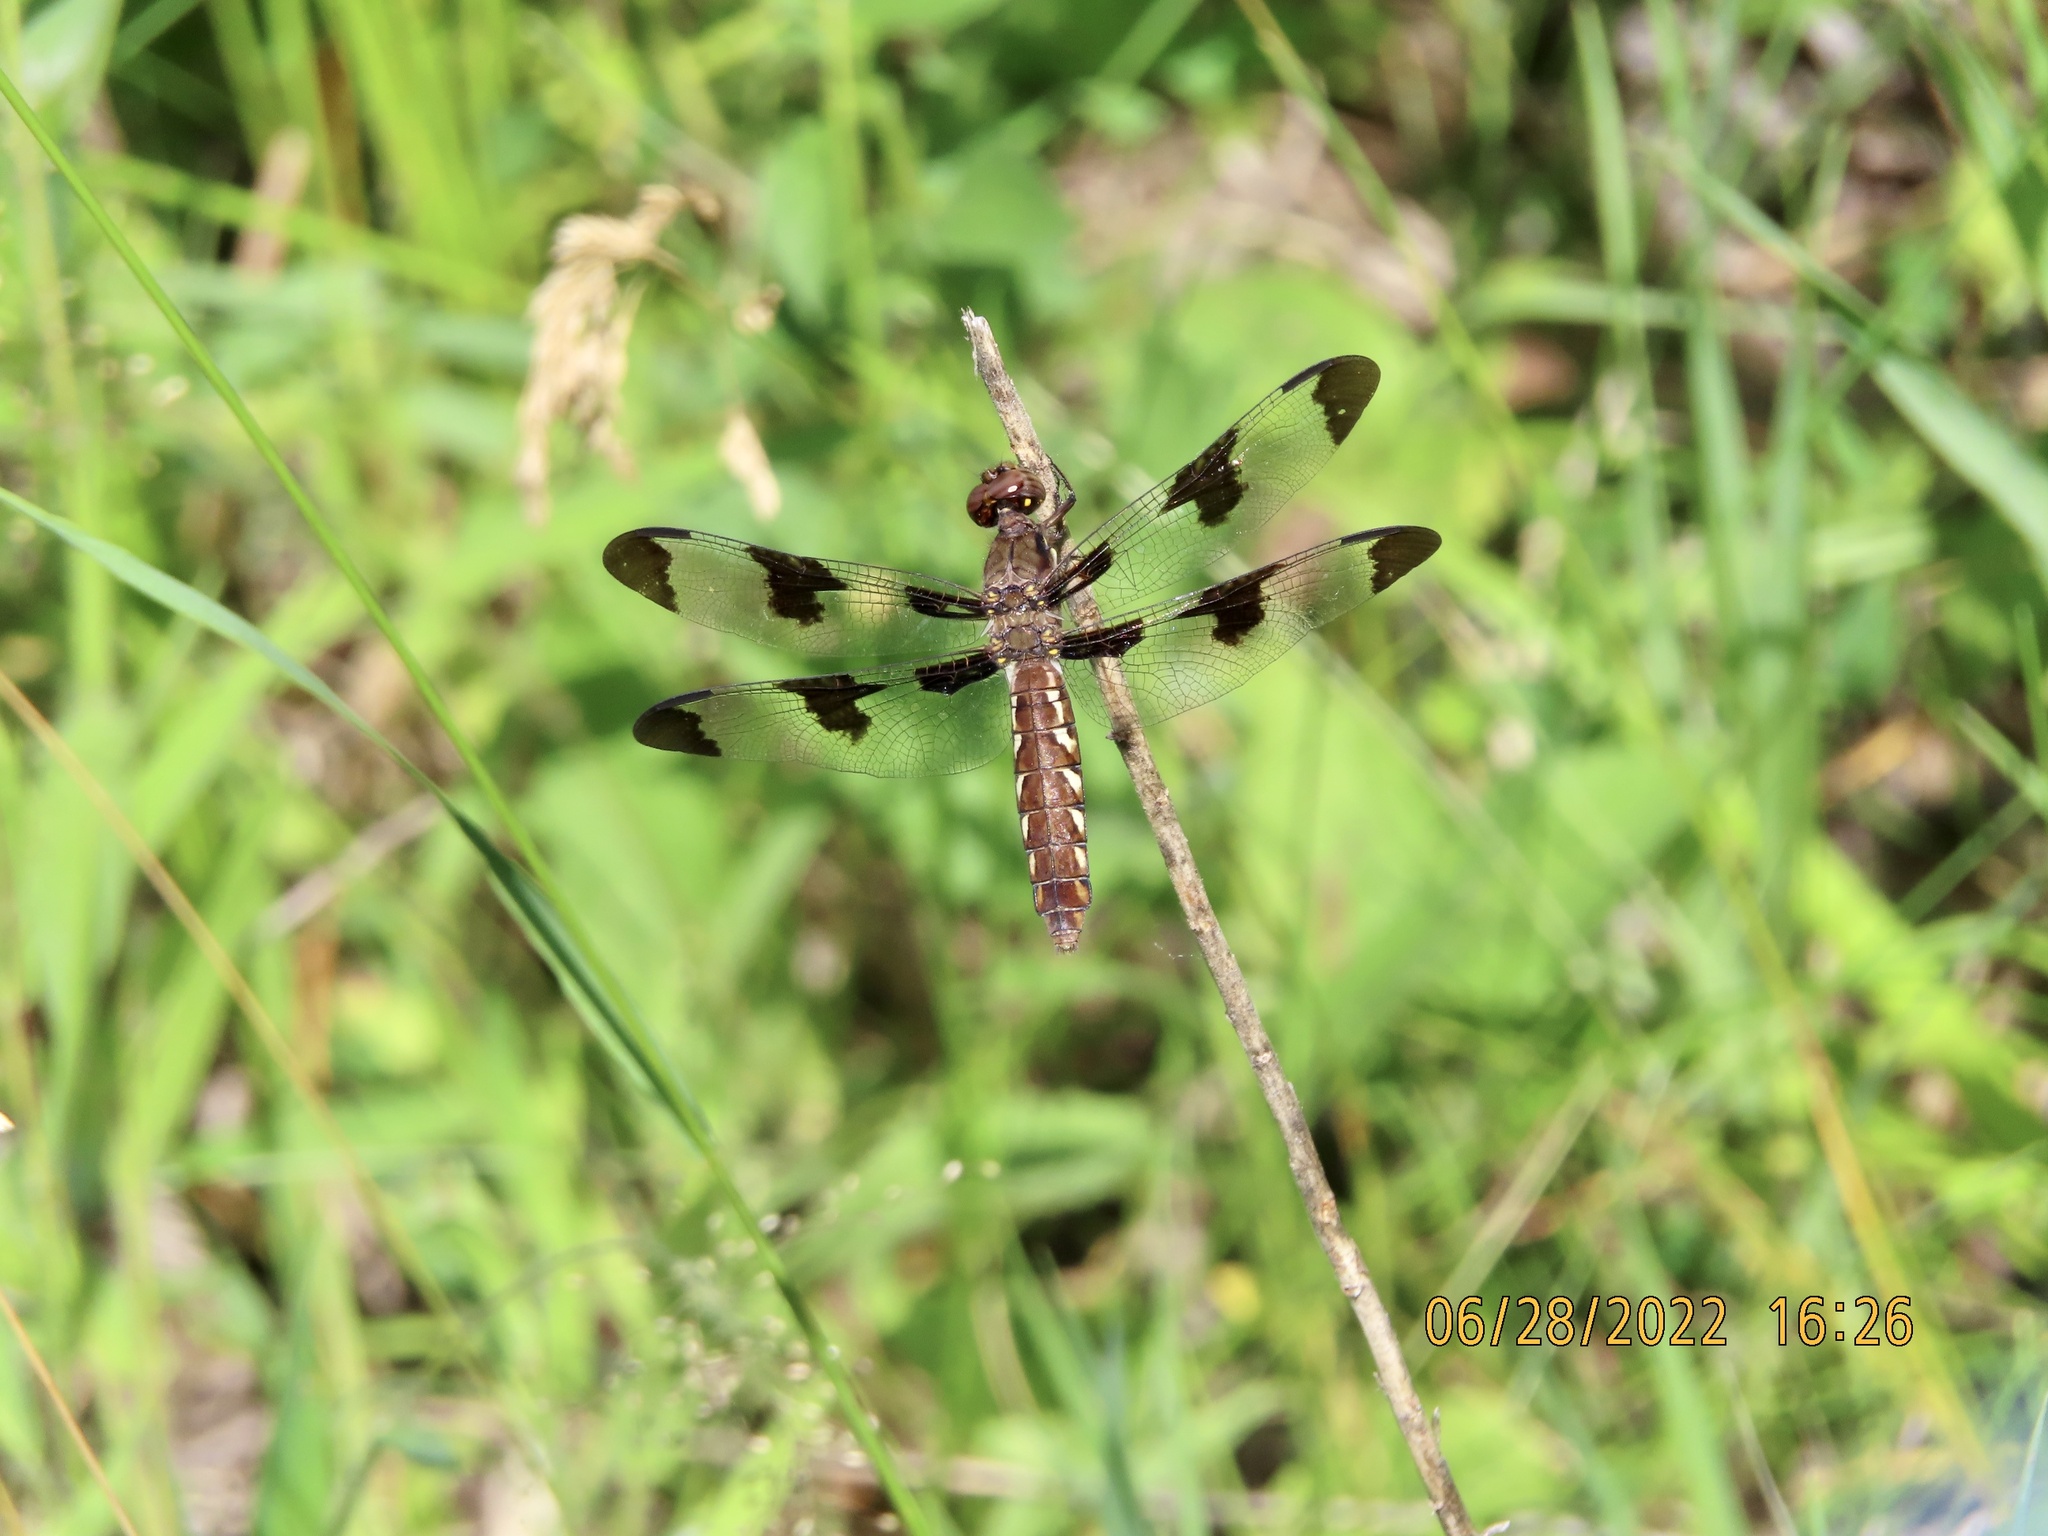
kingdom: Animalia
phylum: Arthropoda
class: Insecta
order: Odonata
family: Libellulidae
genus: Plathemis
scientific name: Plathemis lydia
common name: Common whitetail
